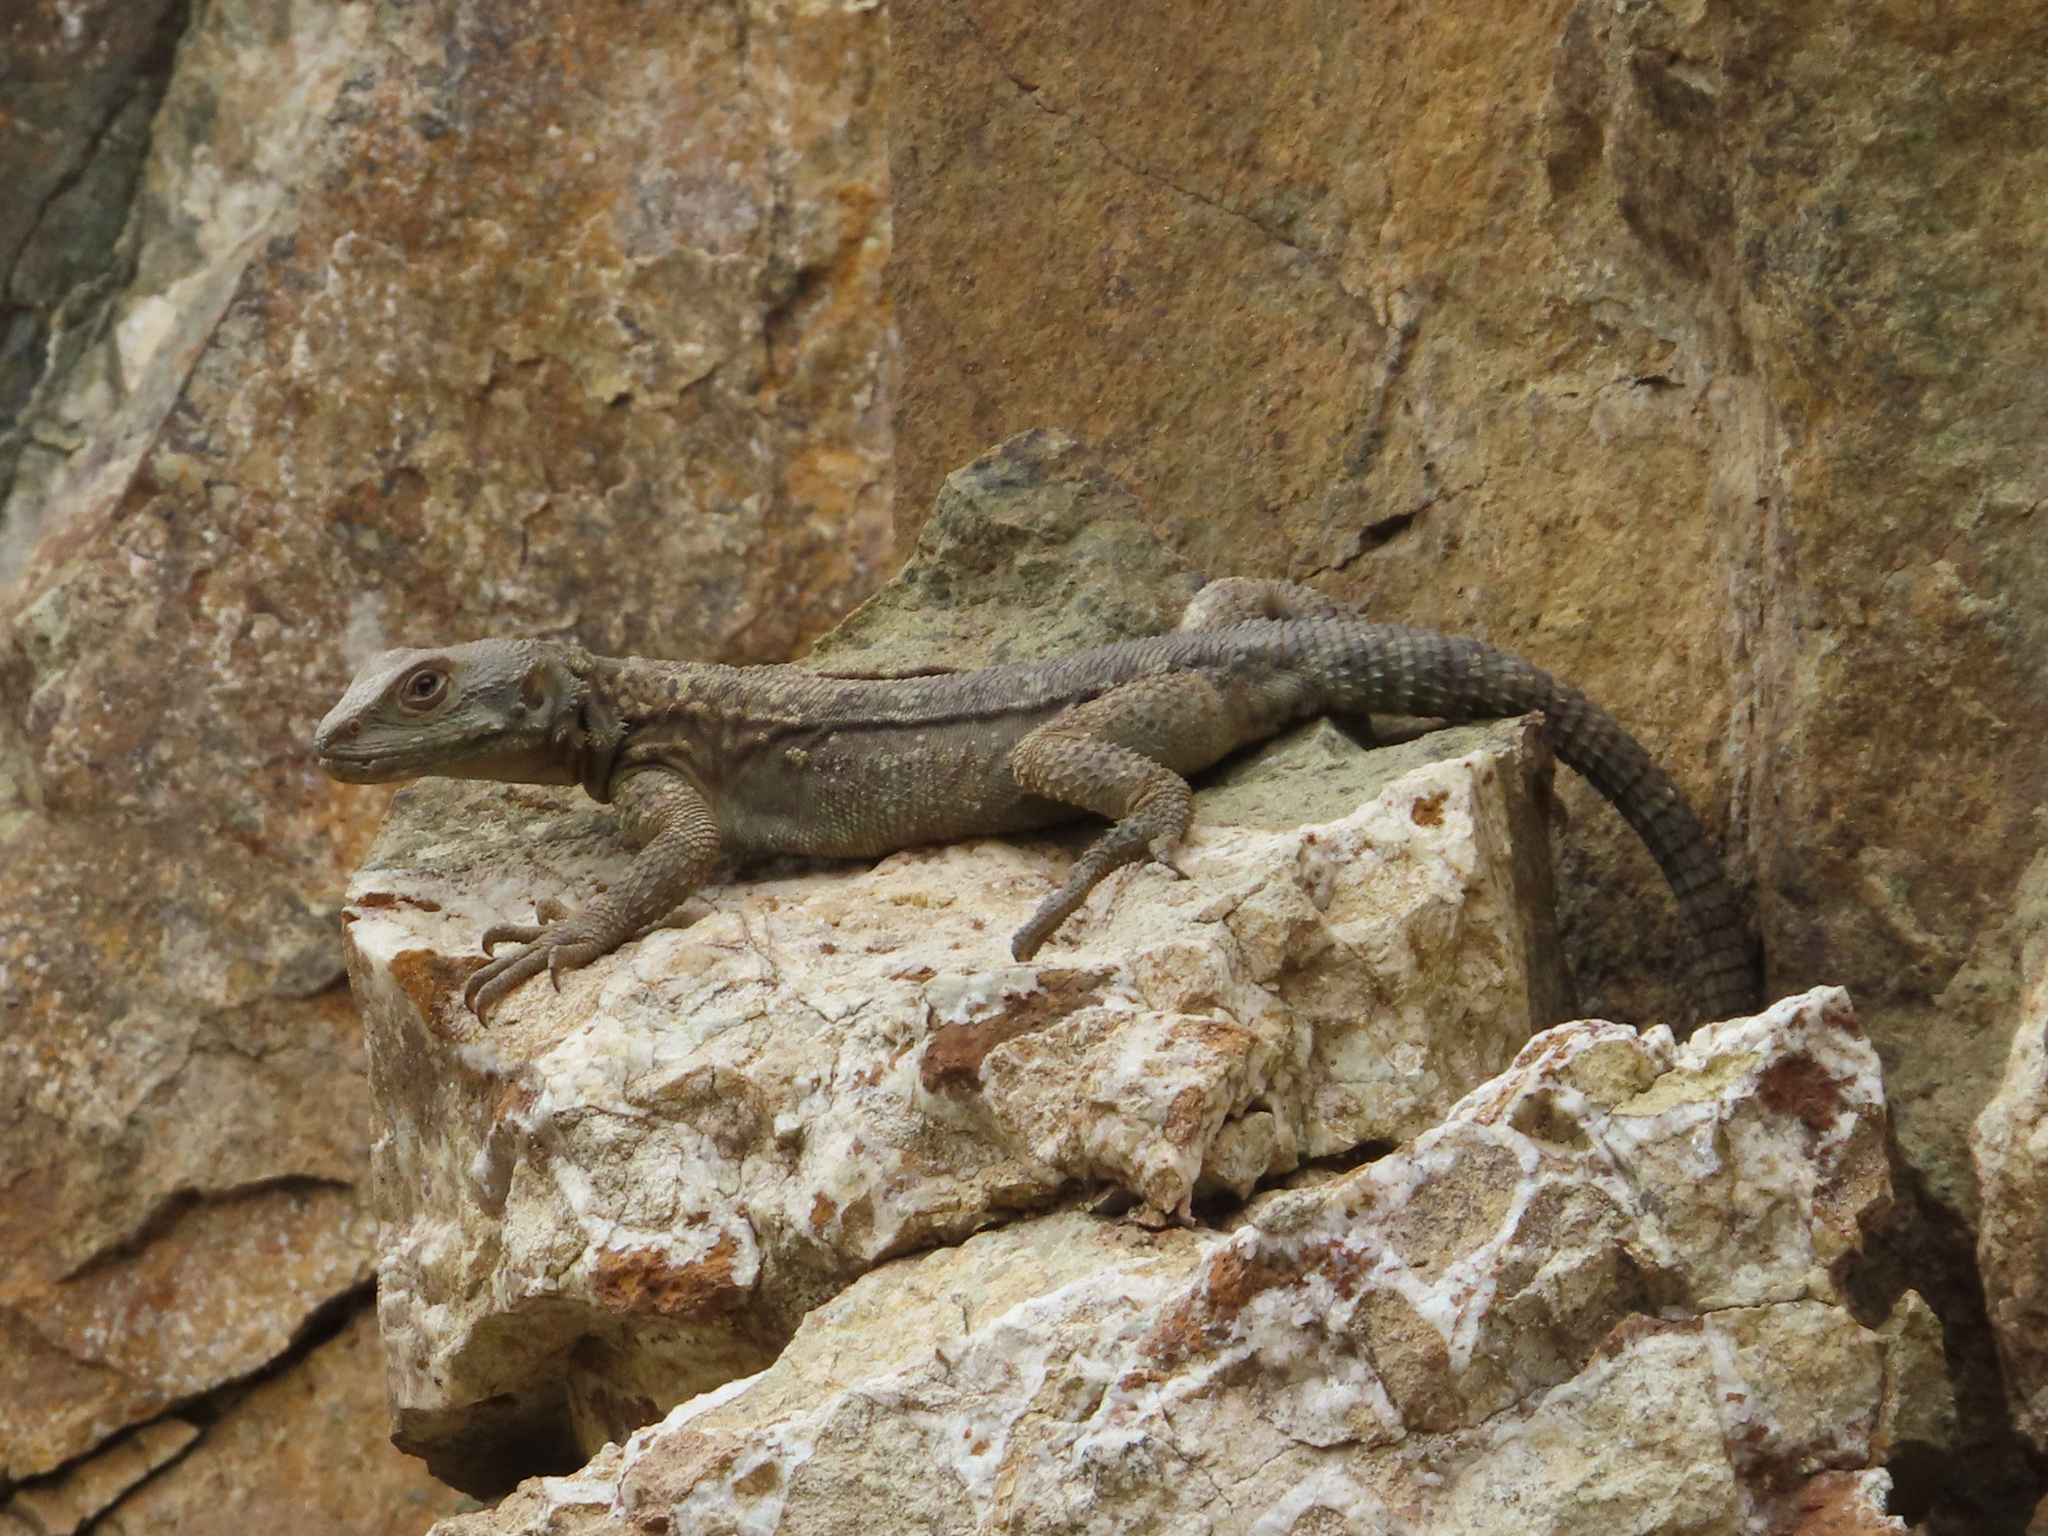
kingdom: Animalia
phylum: Chordata
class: Squamata
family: Agamidae
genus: Paralaudakia
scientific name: Paralaudakia caucasia
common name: Caucasian agama
